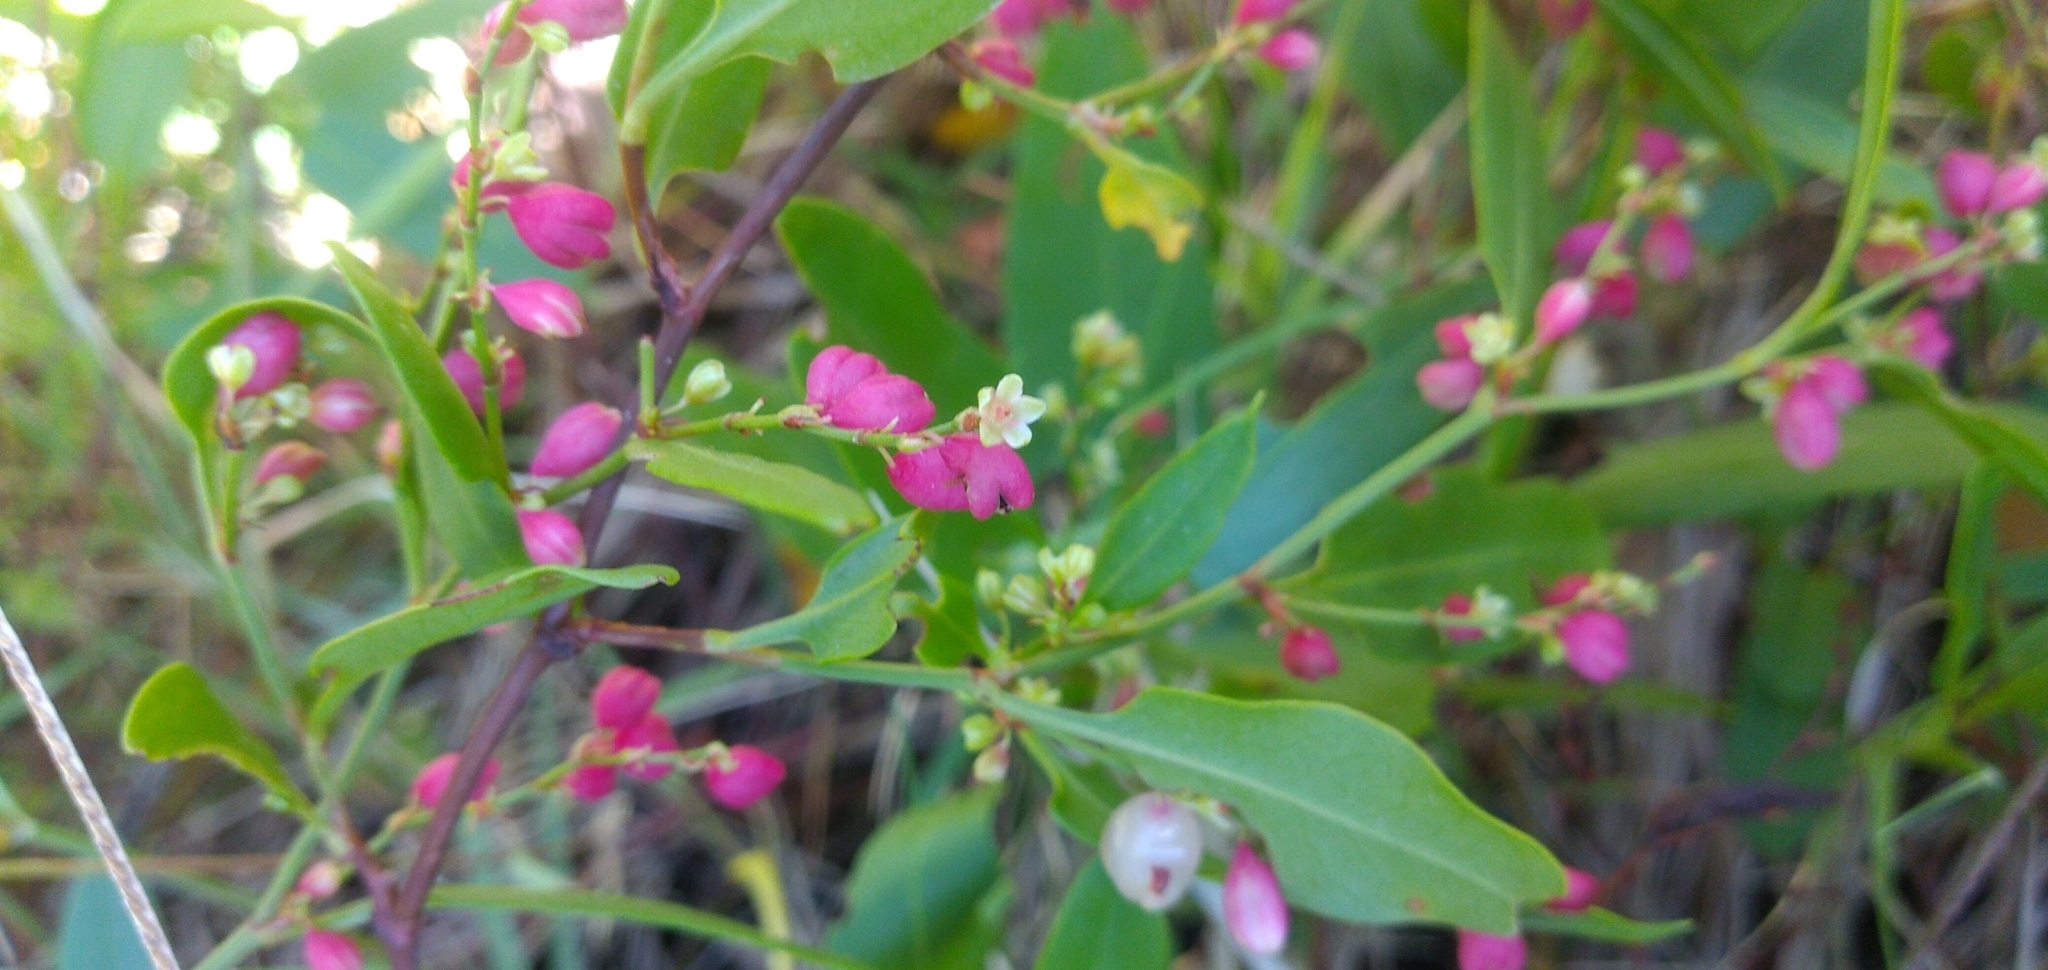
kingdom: Plantae
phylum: Tracheophyta
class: Magnoliopsida
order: Caryophyllales
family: Polygonaceae
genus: Muehlenbeckia
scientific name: Muehlenbeckia sagittifolia
